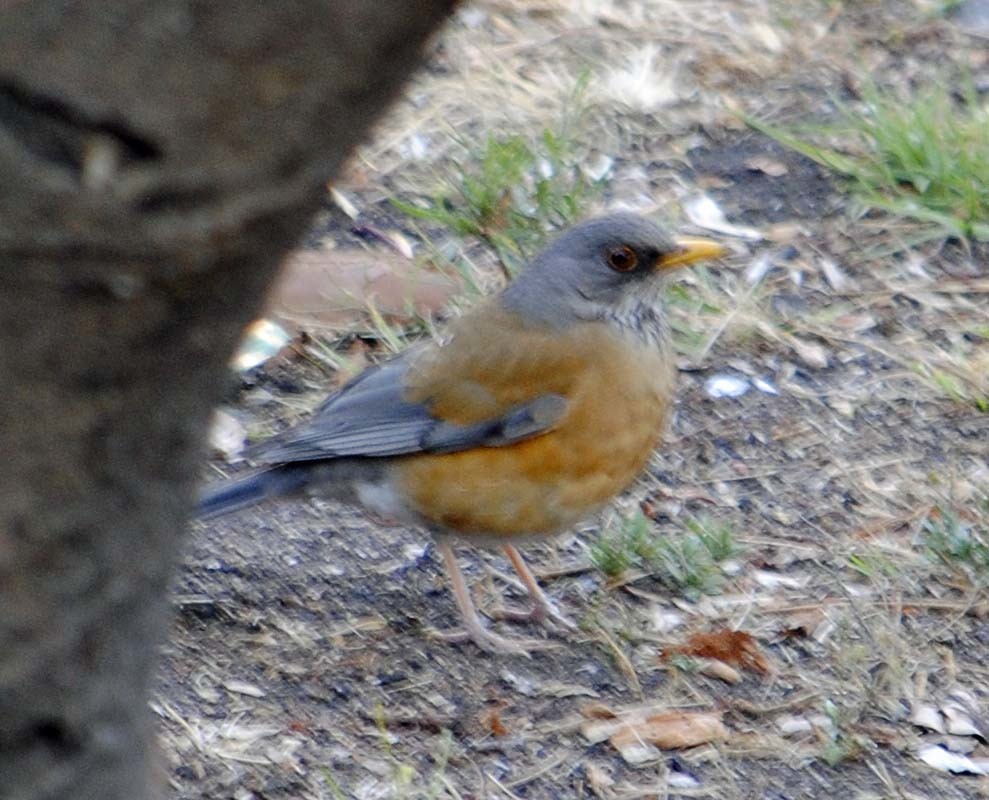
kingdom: Animalia
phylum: Chordata
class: Aves
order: Passeriformes
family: Turdidae
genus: Turdus
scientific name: Turdus rufopalliatus
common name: Rufous-backed robin
